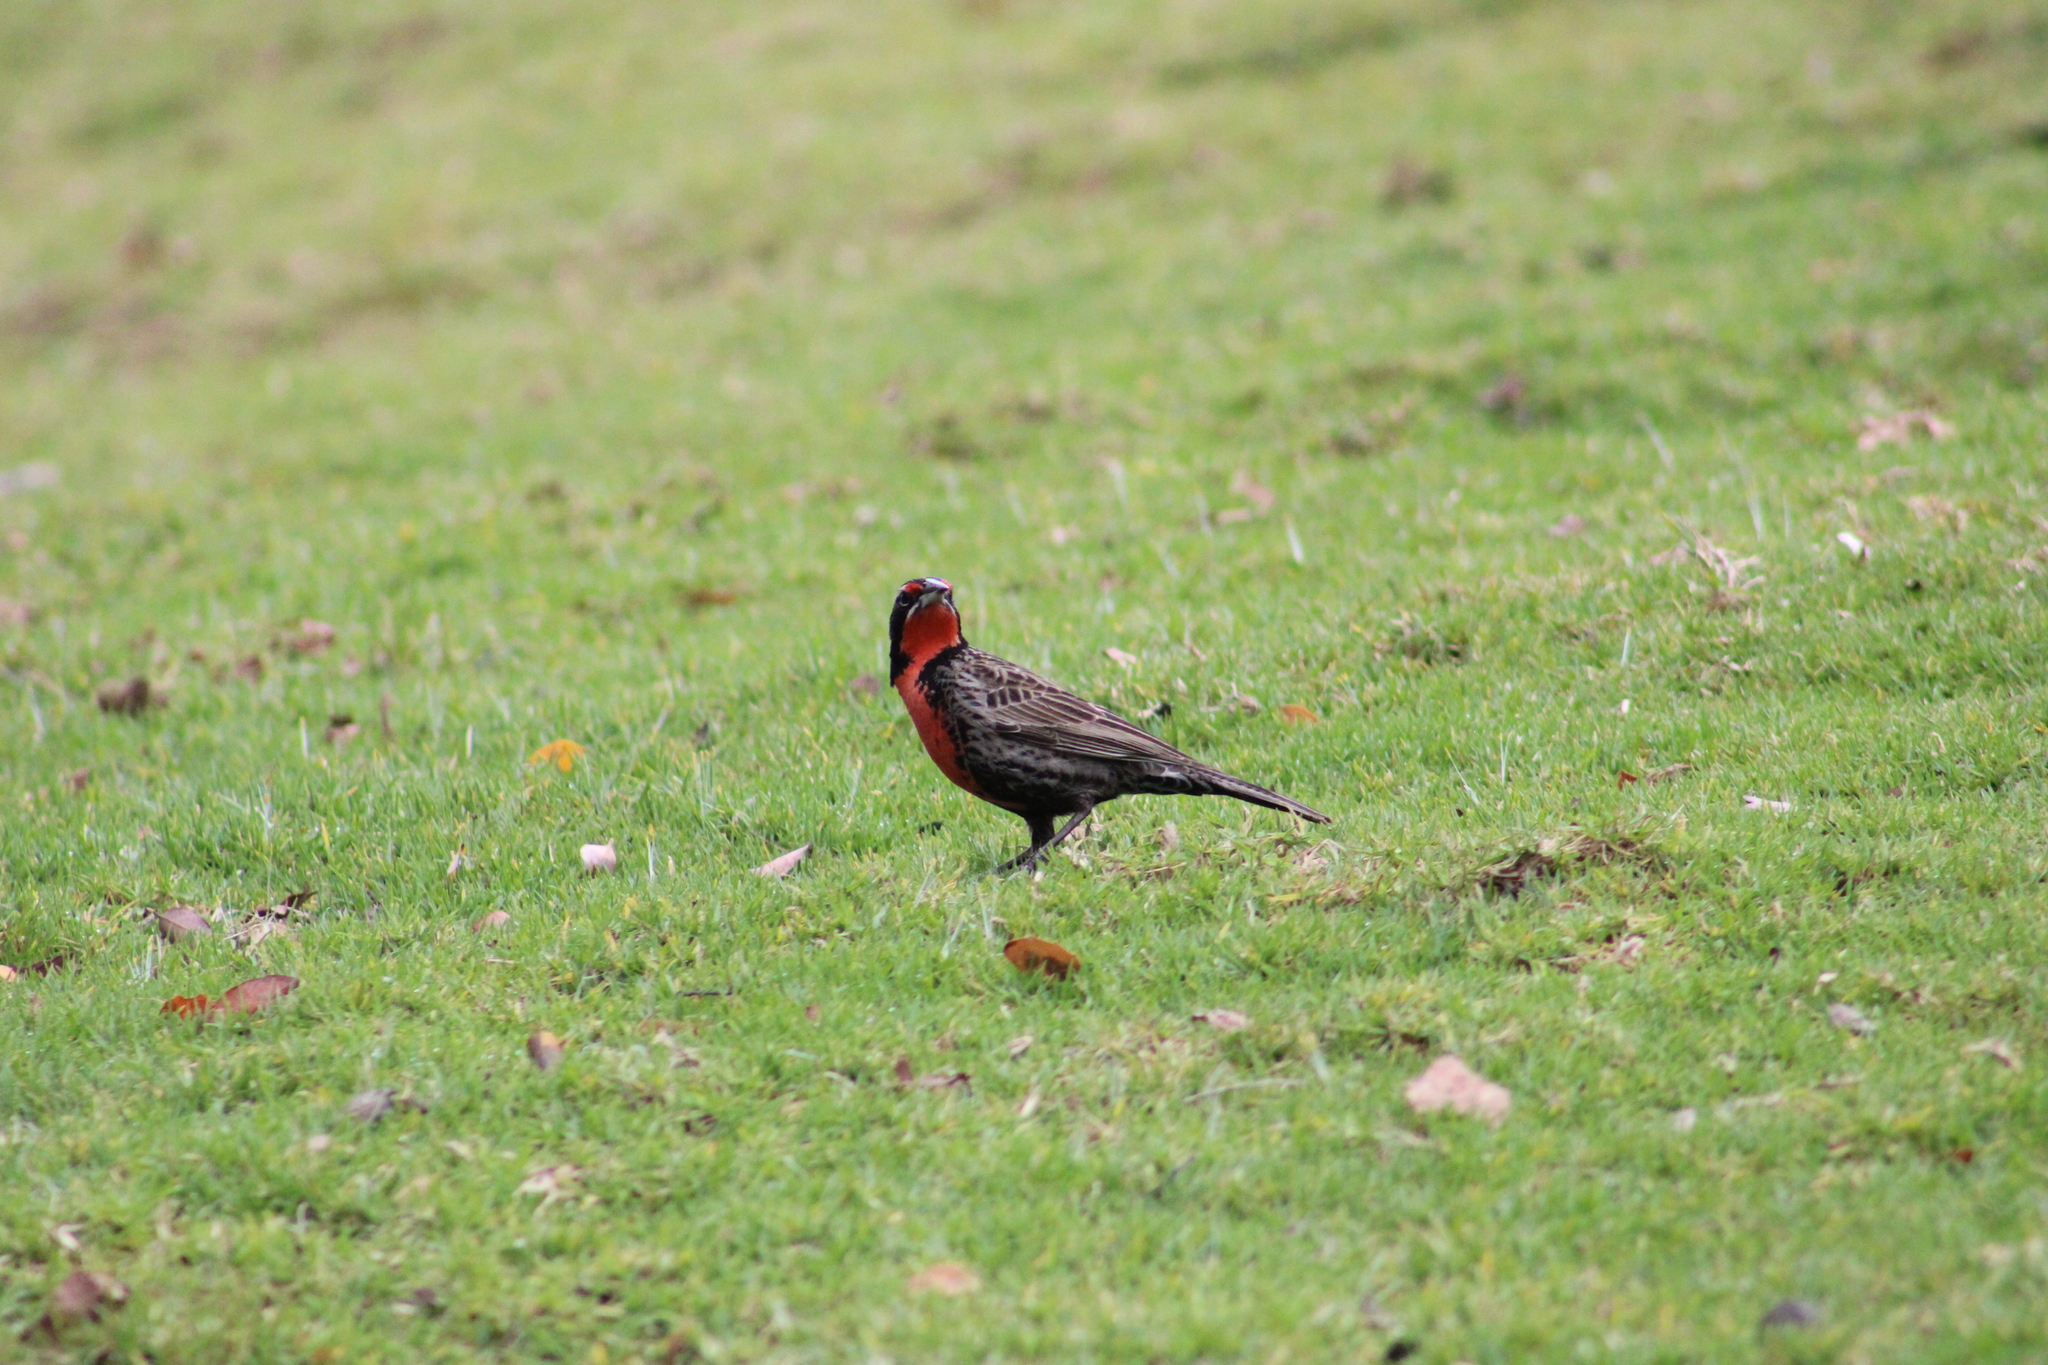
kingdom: Animalia
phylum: Chordata
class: Aves
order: Passeriformes
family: Icteridae
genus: Sturnella
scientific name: Sturnella loyca
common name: Long-tailed meadowlark
